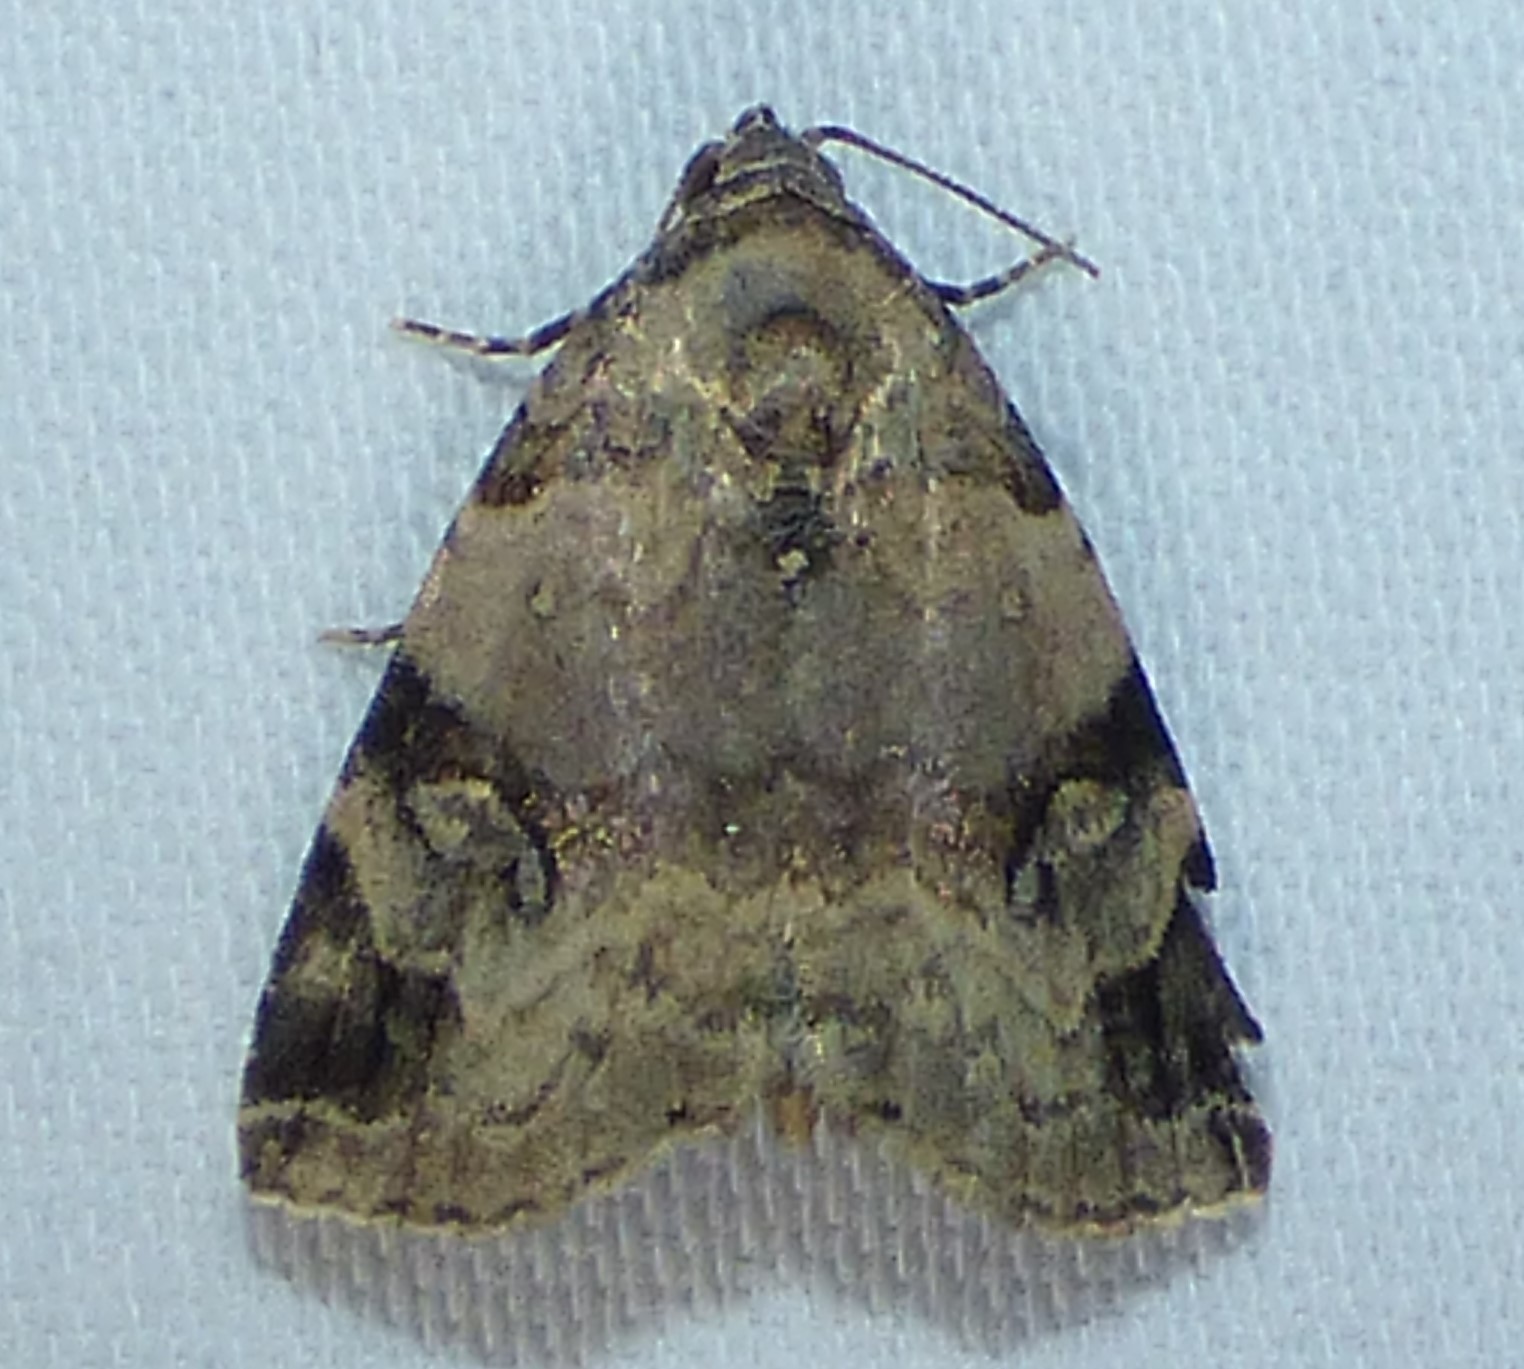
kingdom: Animalia
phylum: Arthropoda
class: Insecta
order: Lepidoptera
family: Noctuidae
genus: Ozarba
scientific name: Ozarba aeria
